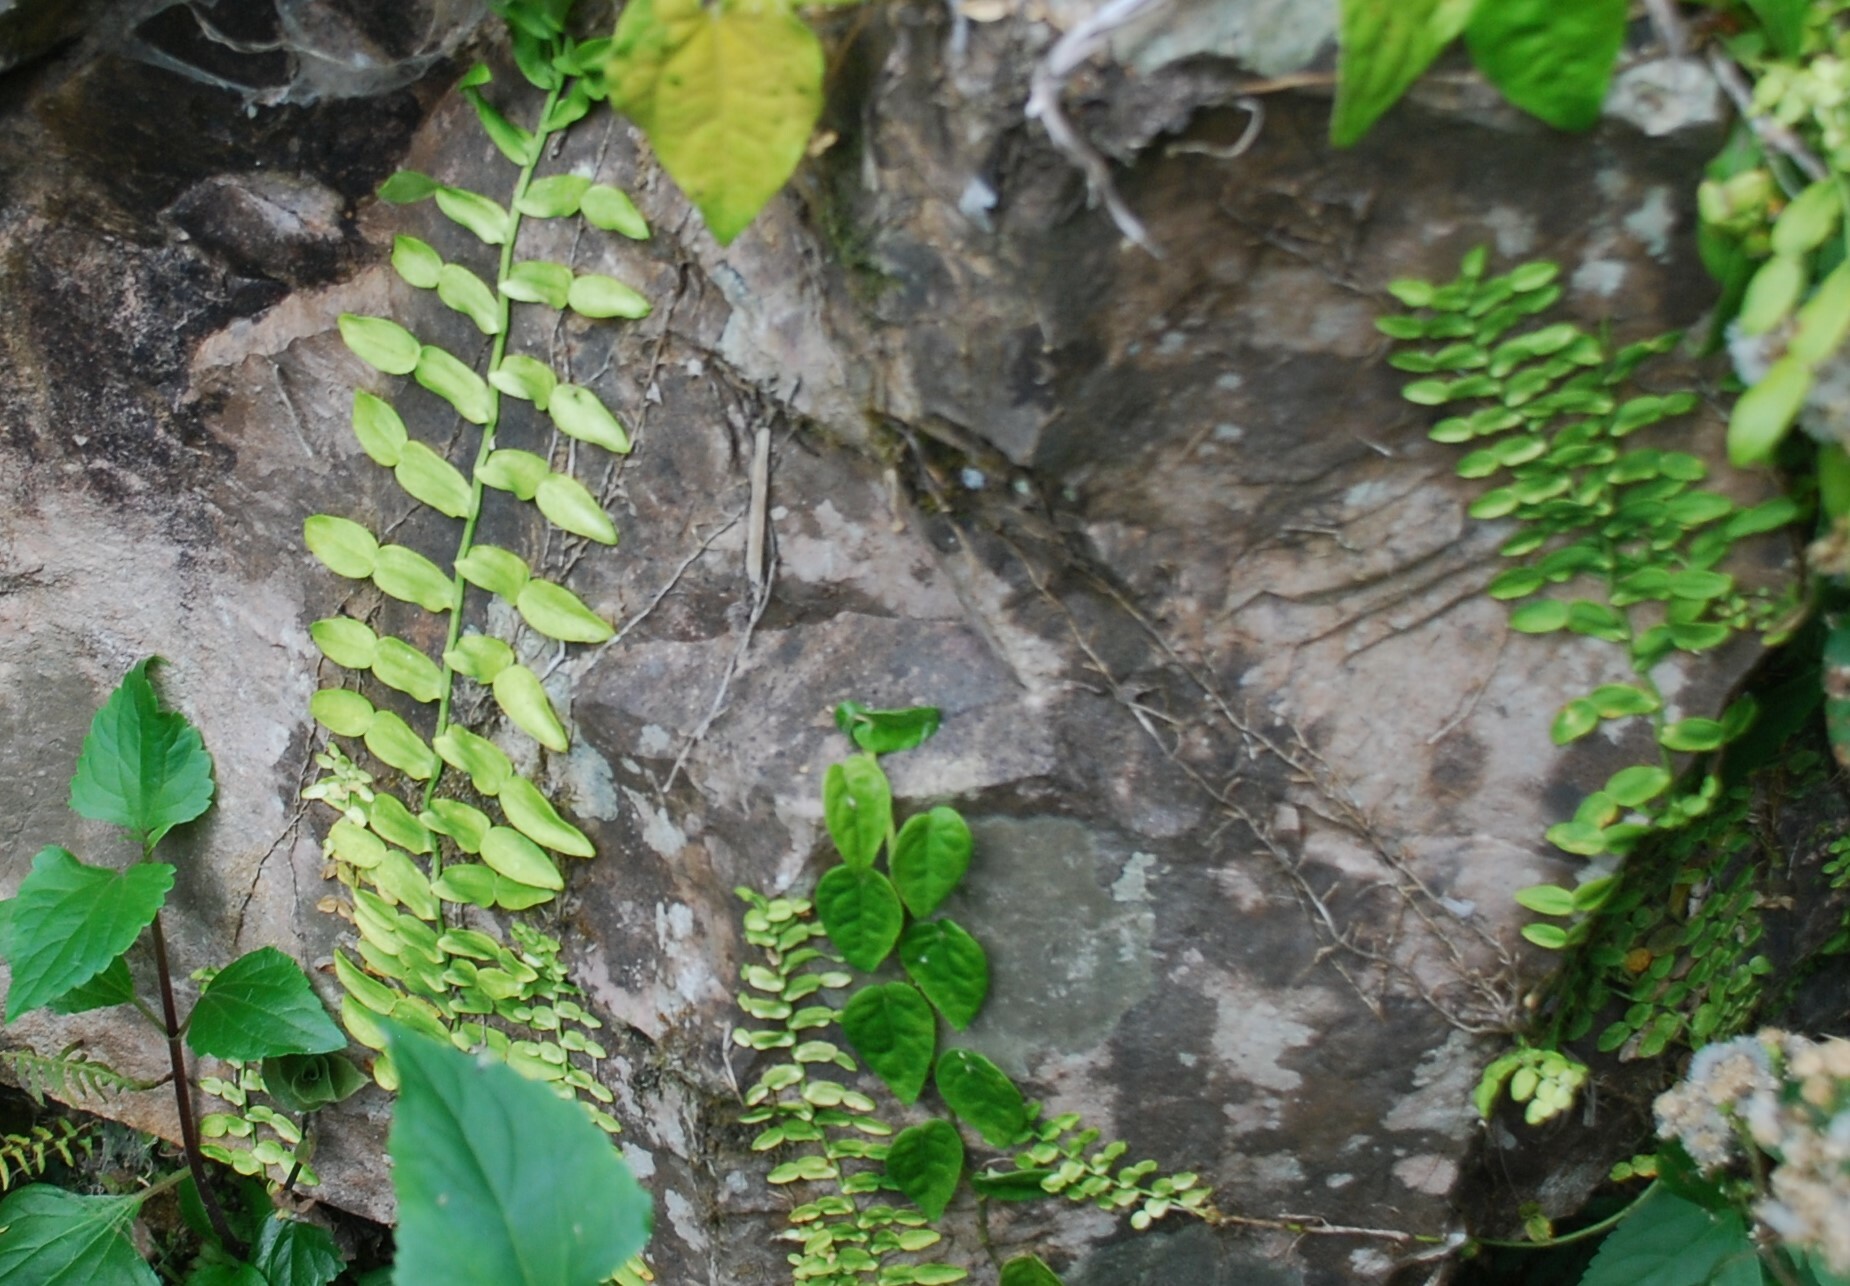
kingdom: Plantae
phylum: Tracheophyta
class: Liliopsida
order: Alismatales
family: Araceae
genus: Pothos
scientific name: Pothos longipes
